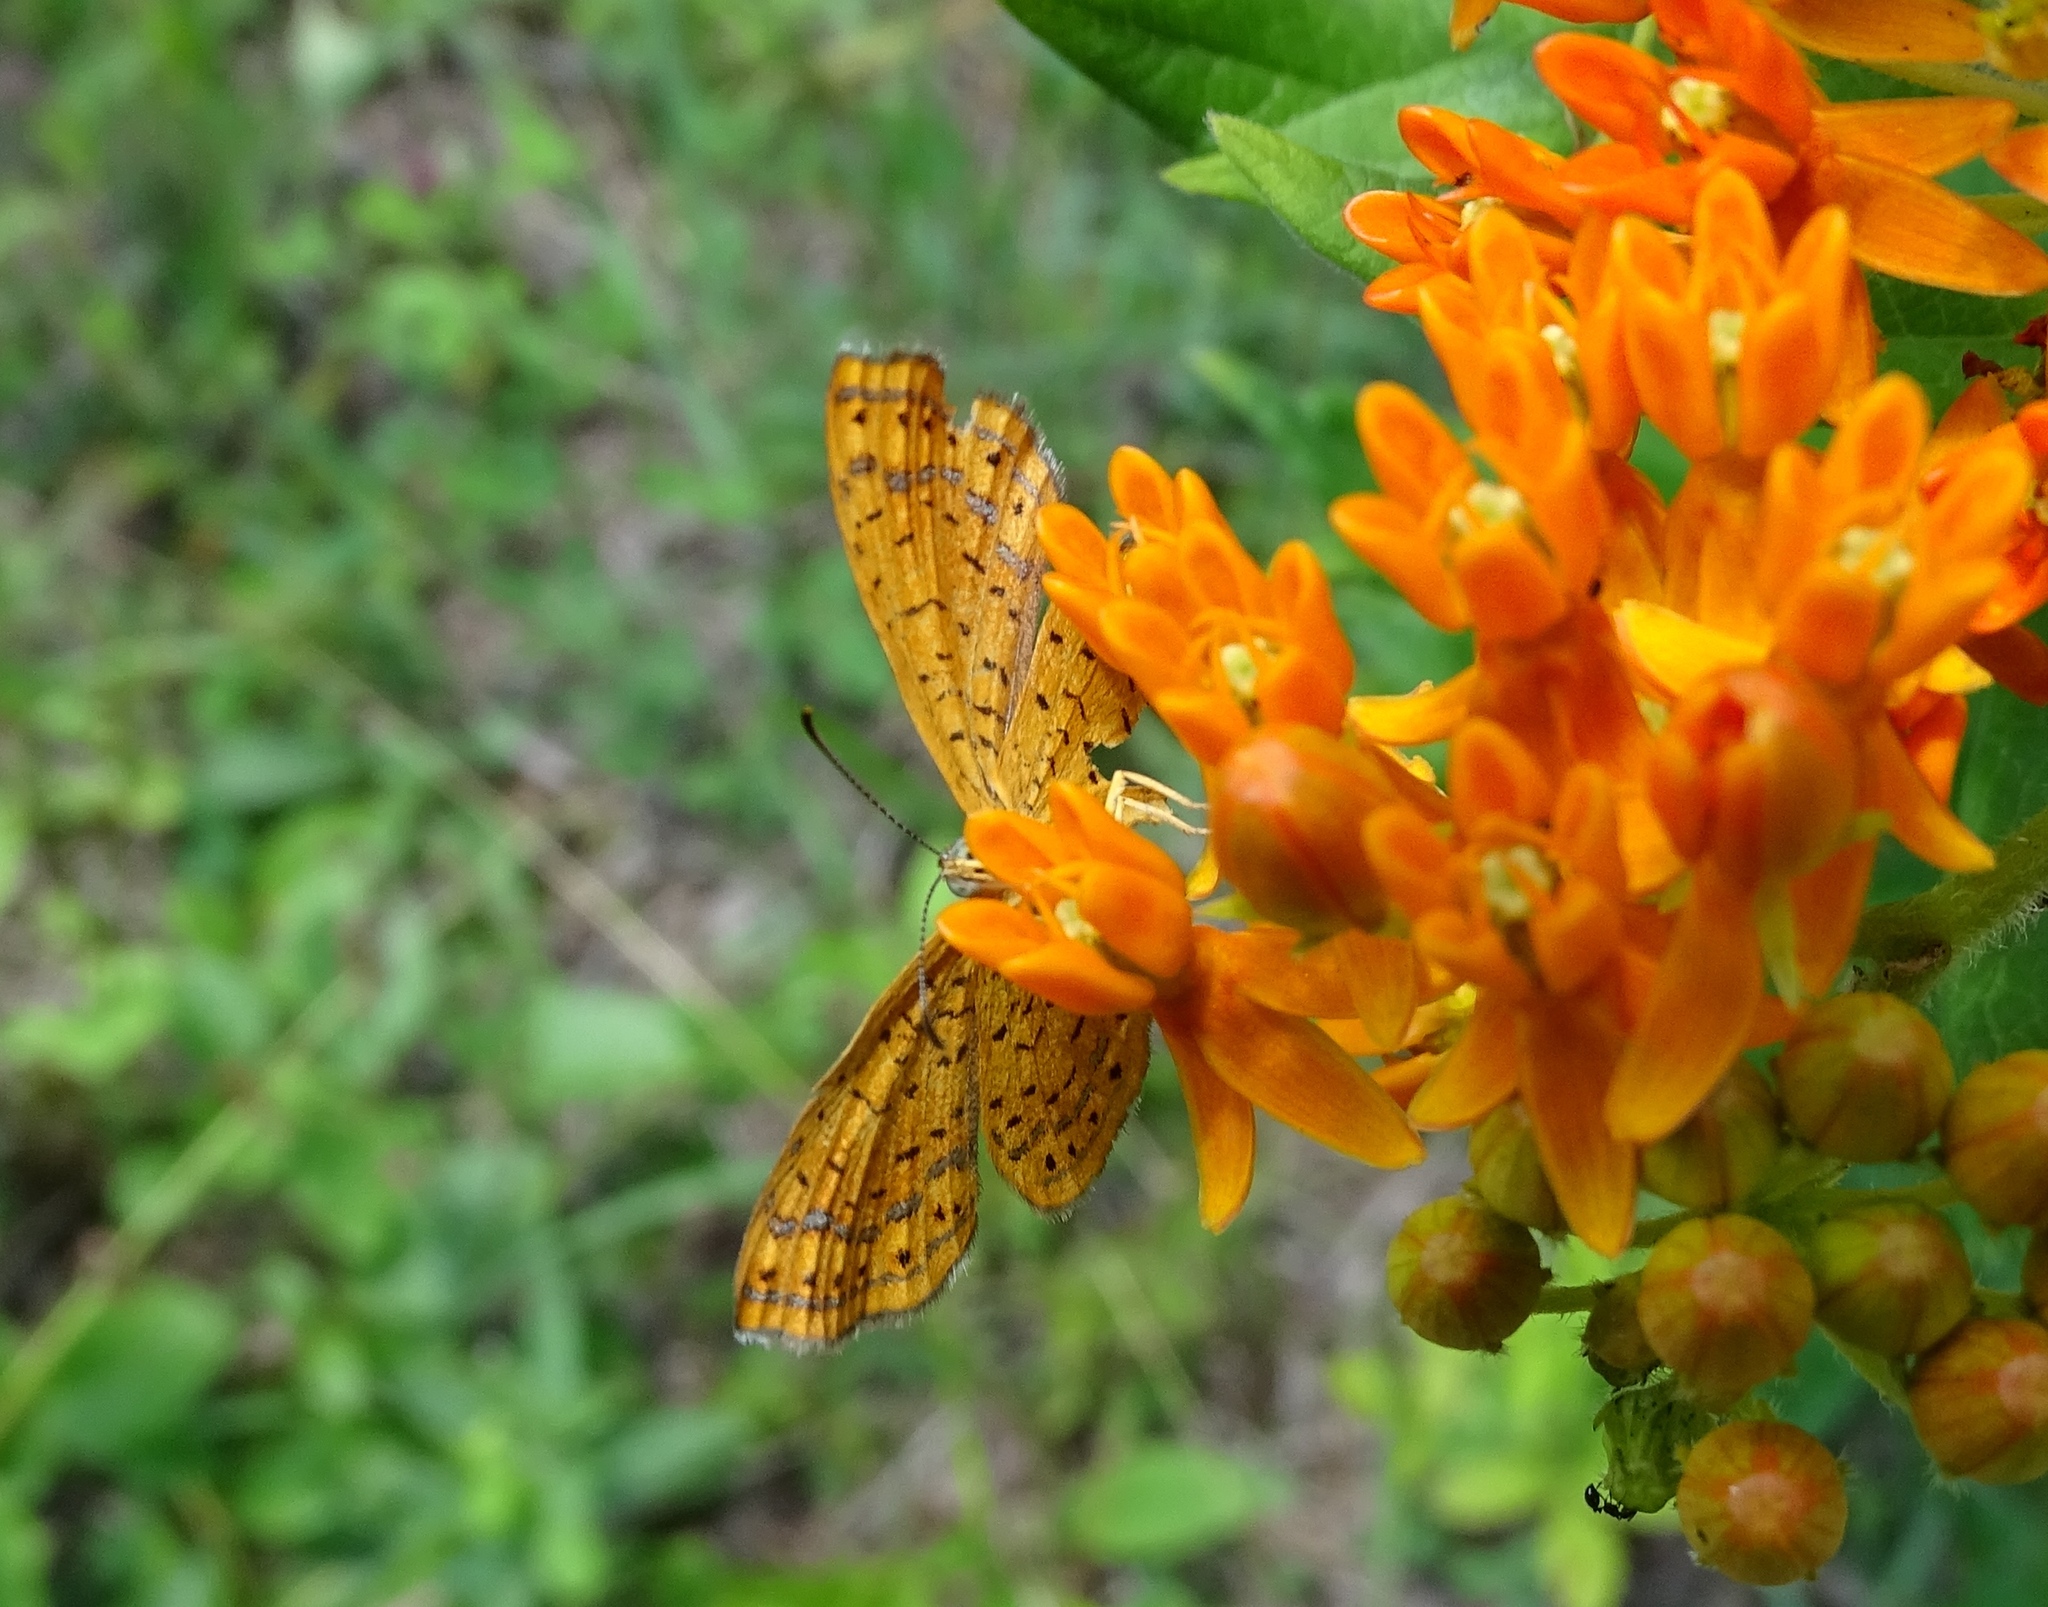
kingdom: Animalia
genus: Calephelis
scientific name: Calephelis borealis
